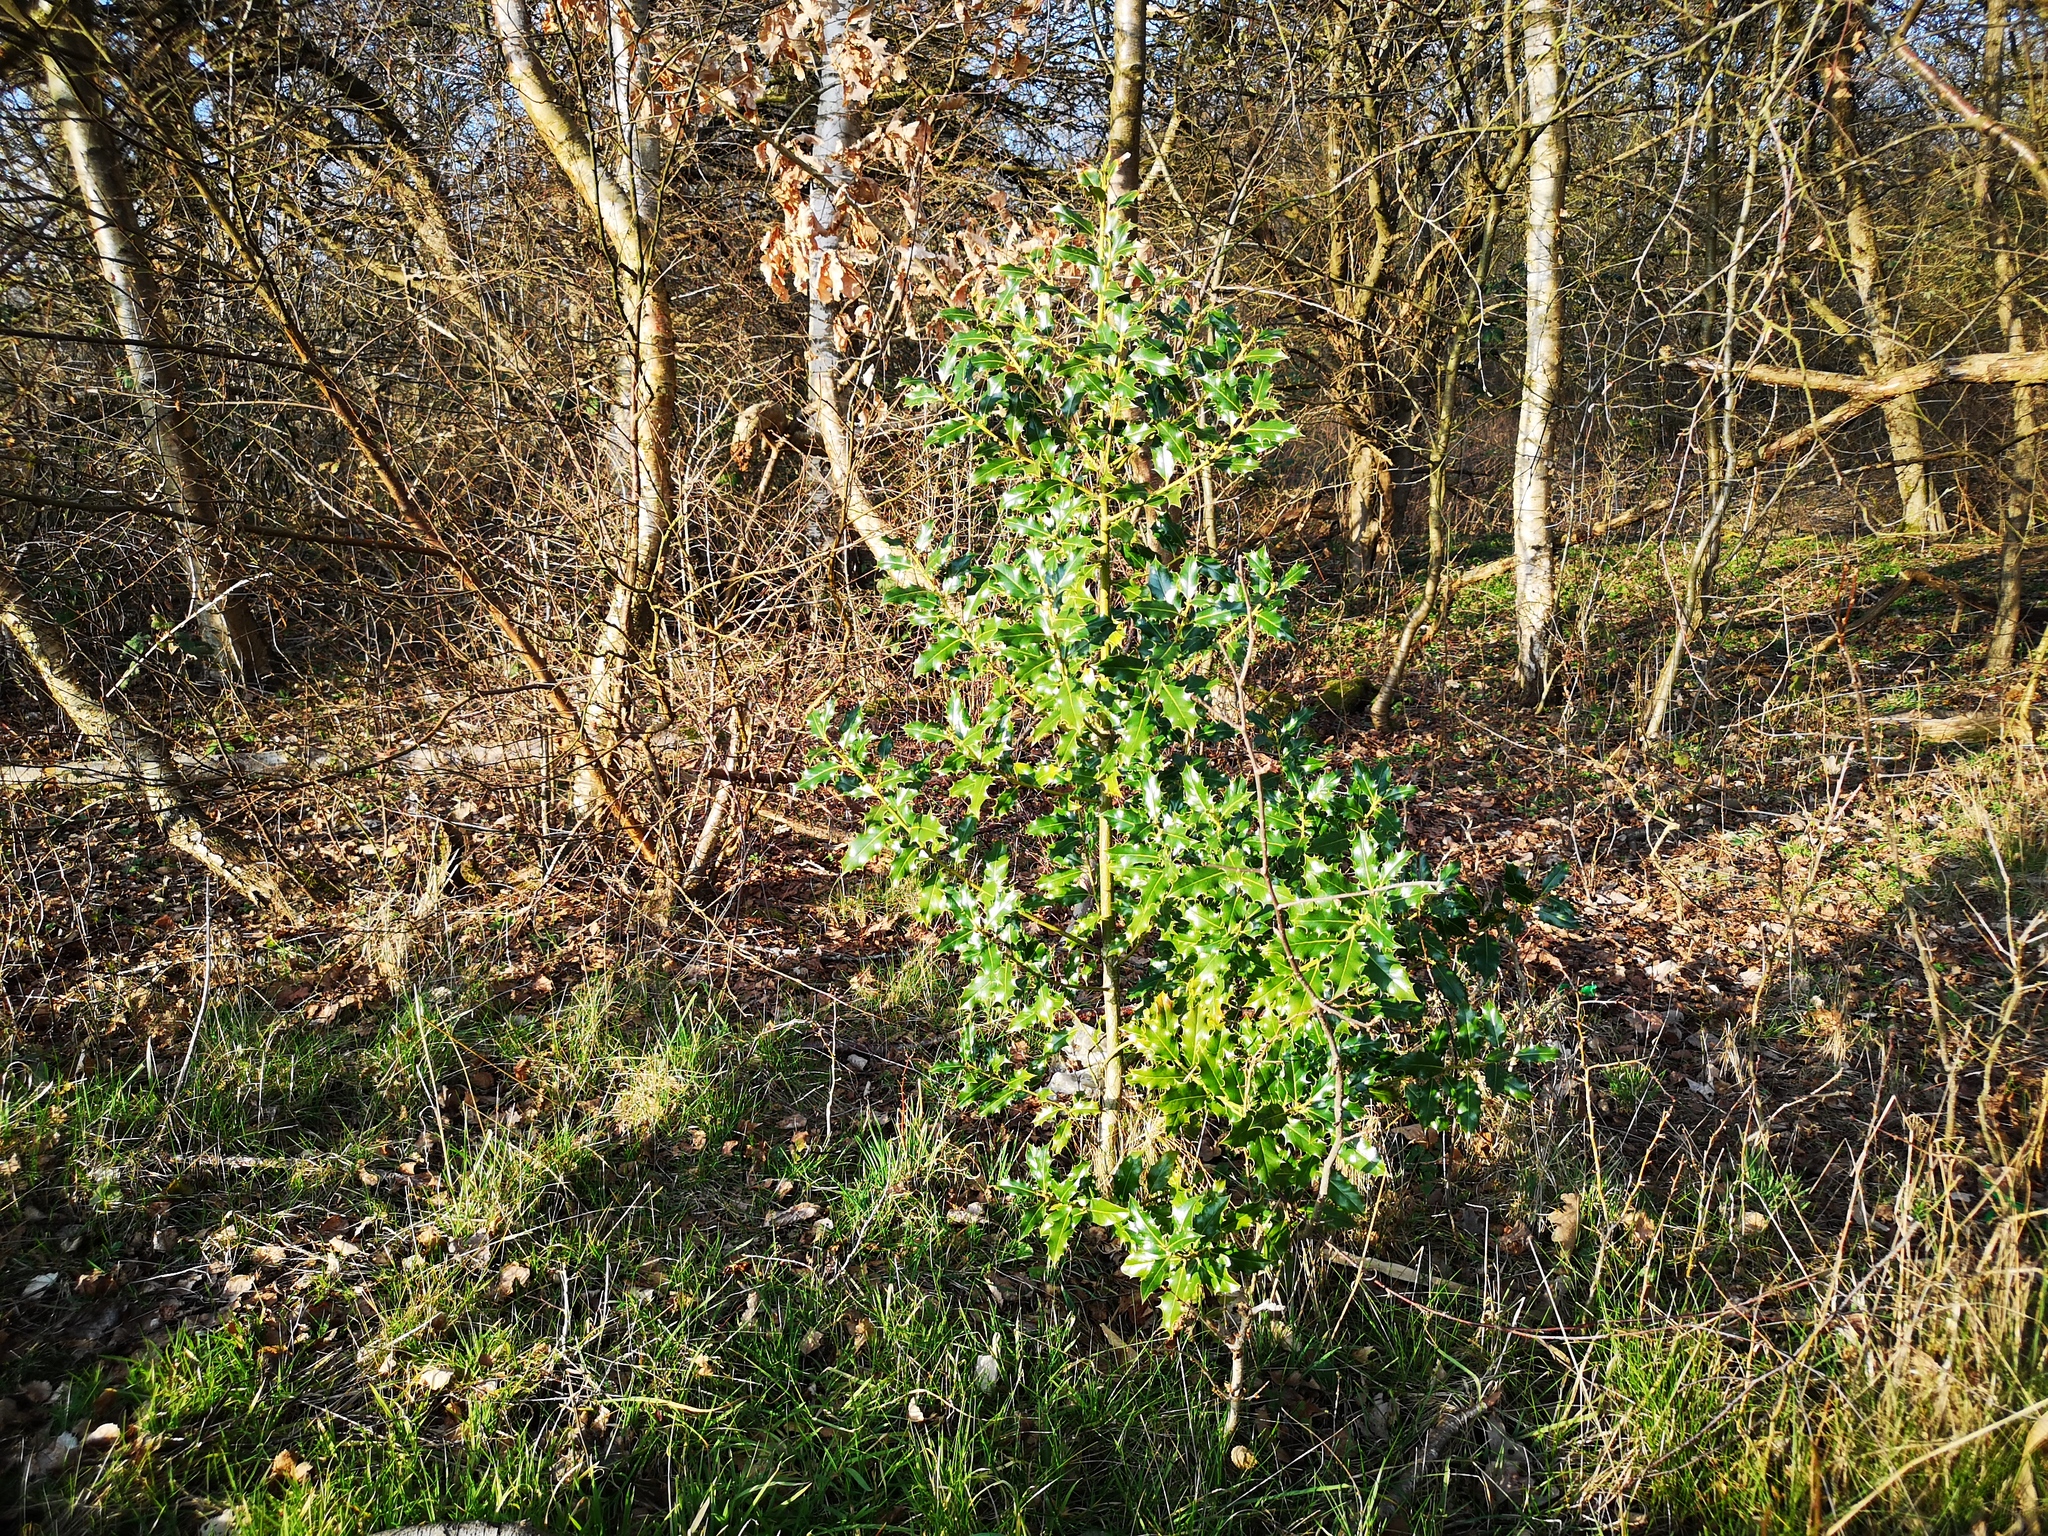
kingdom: Plantae
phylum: Tracheophyta
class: Magnoliopsida
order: Aquifoliales
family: Aquifoliaceae
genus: Ilex
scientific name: Ilex aquifolium
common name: English holly
